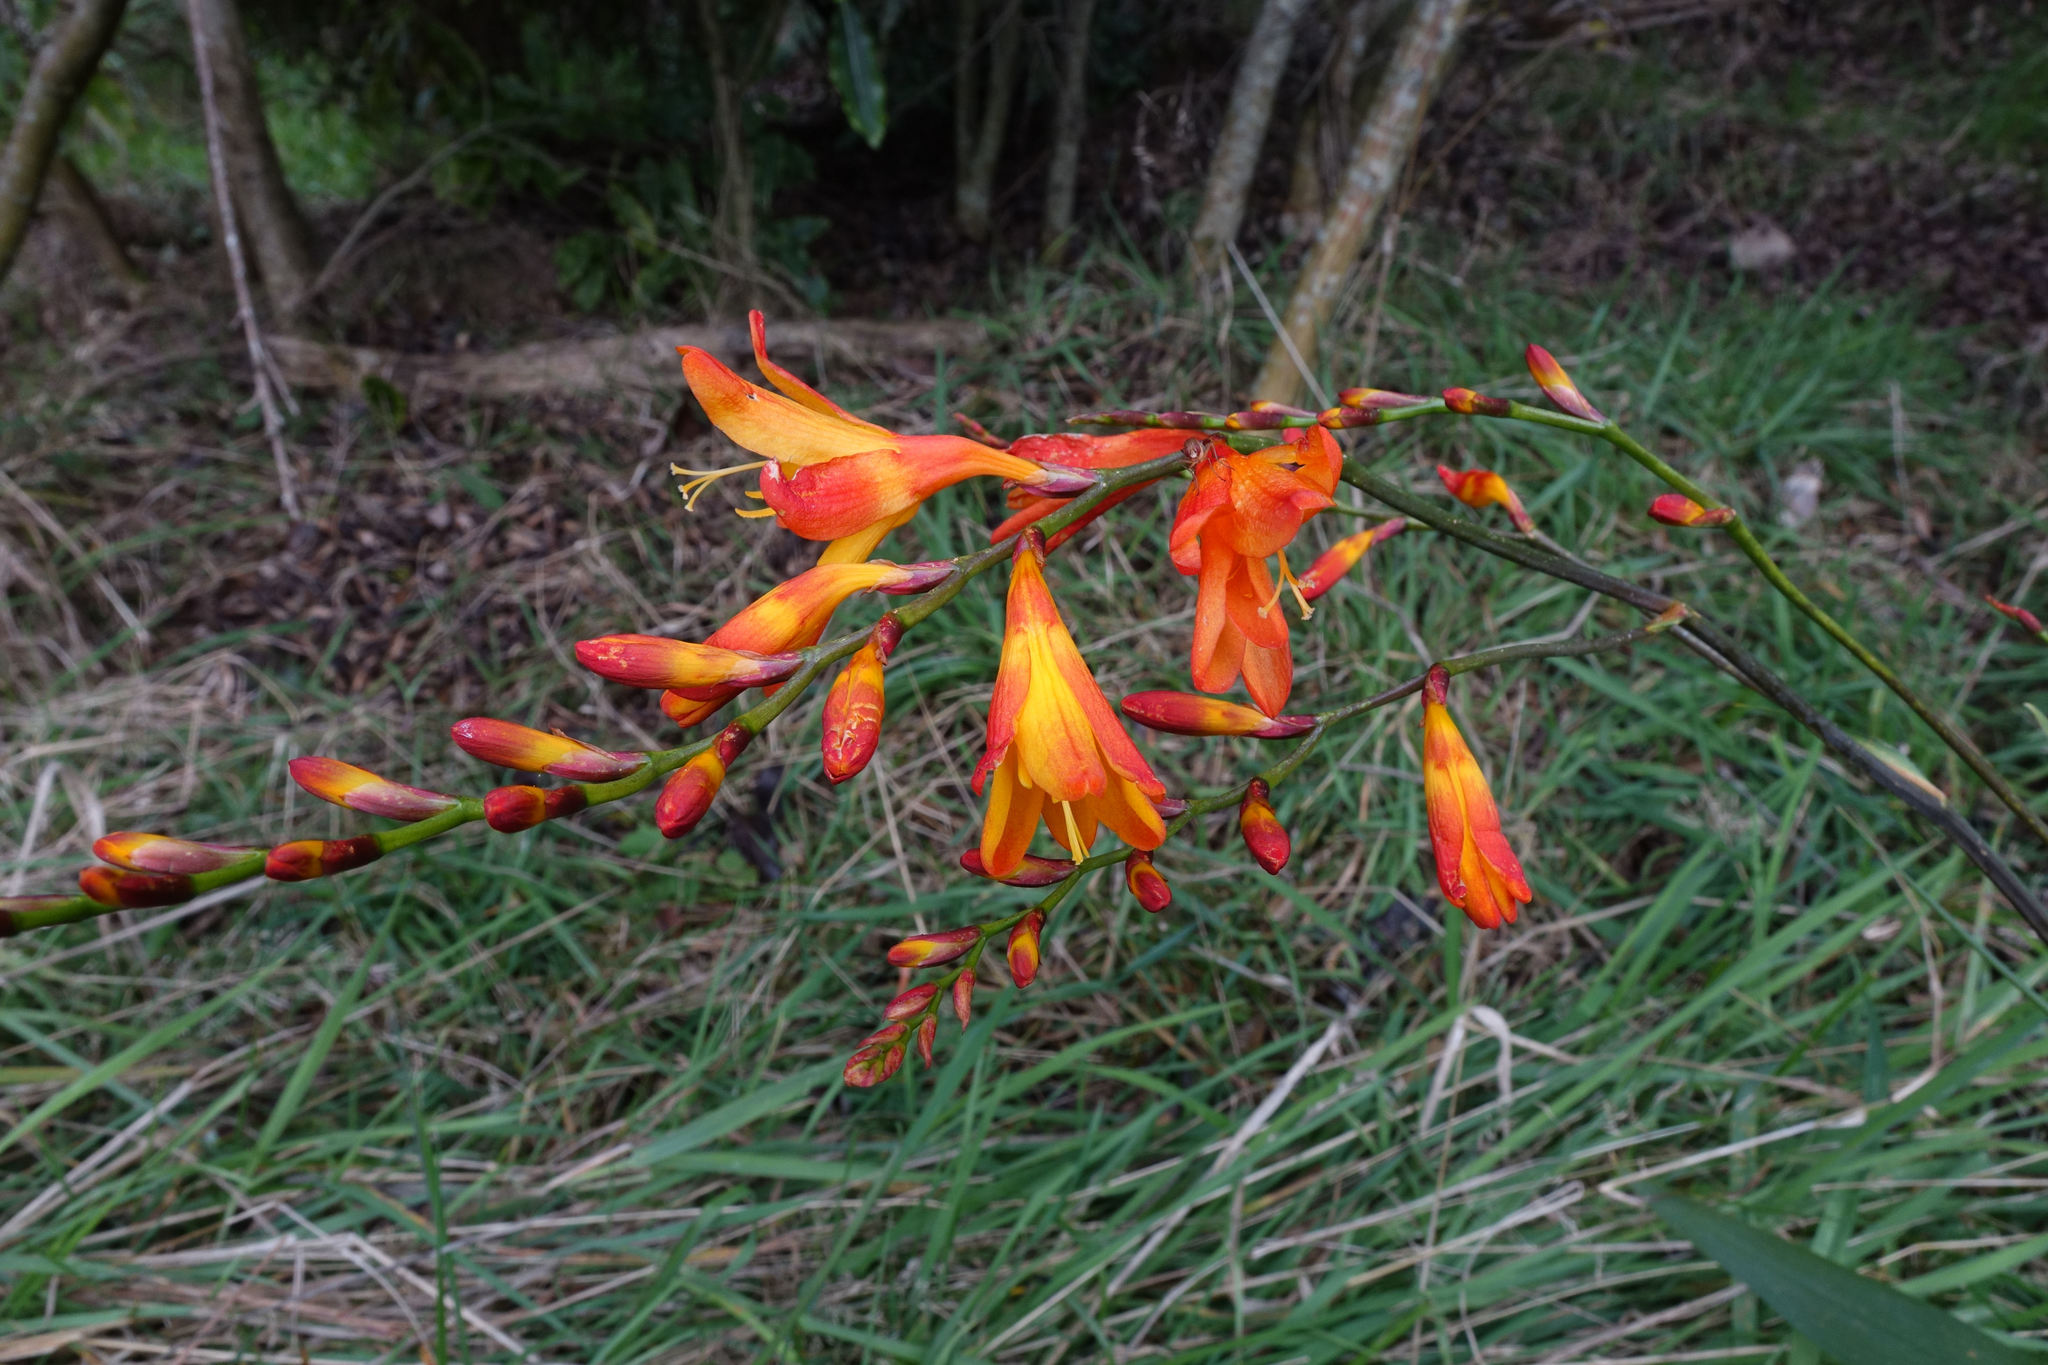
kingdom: Plantae
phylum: Tracheophyta
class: Liliopsida
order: Asparagales
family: Iridaceae
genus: Crocosmia
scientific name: Crocosmia crocosmiiflora
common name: Montbretia
